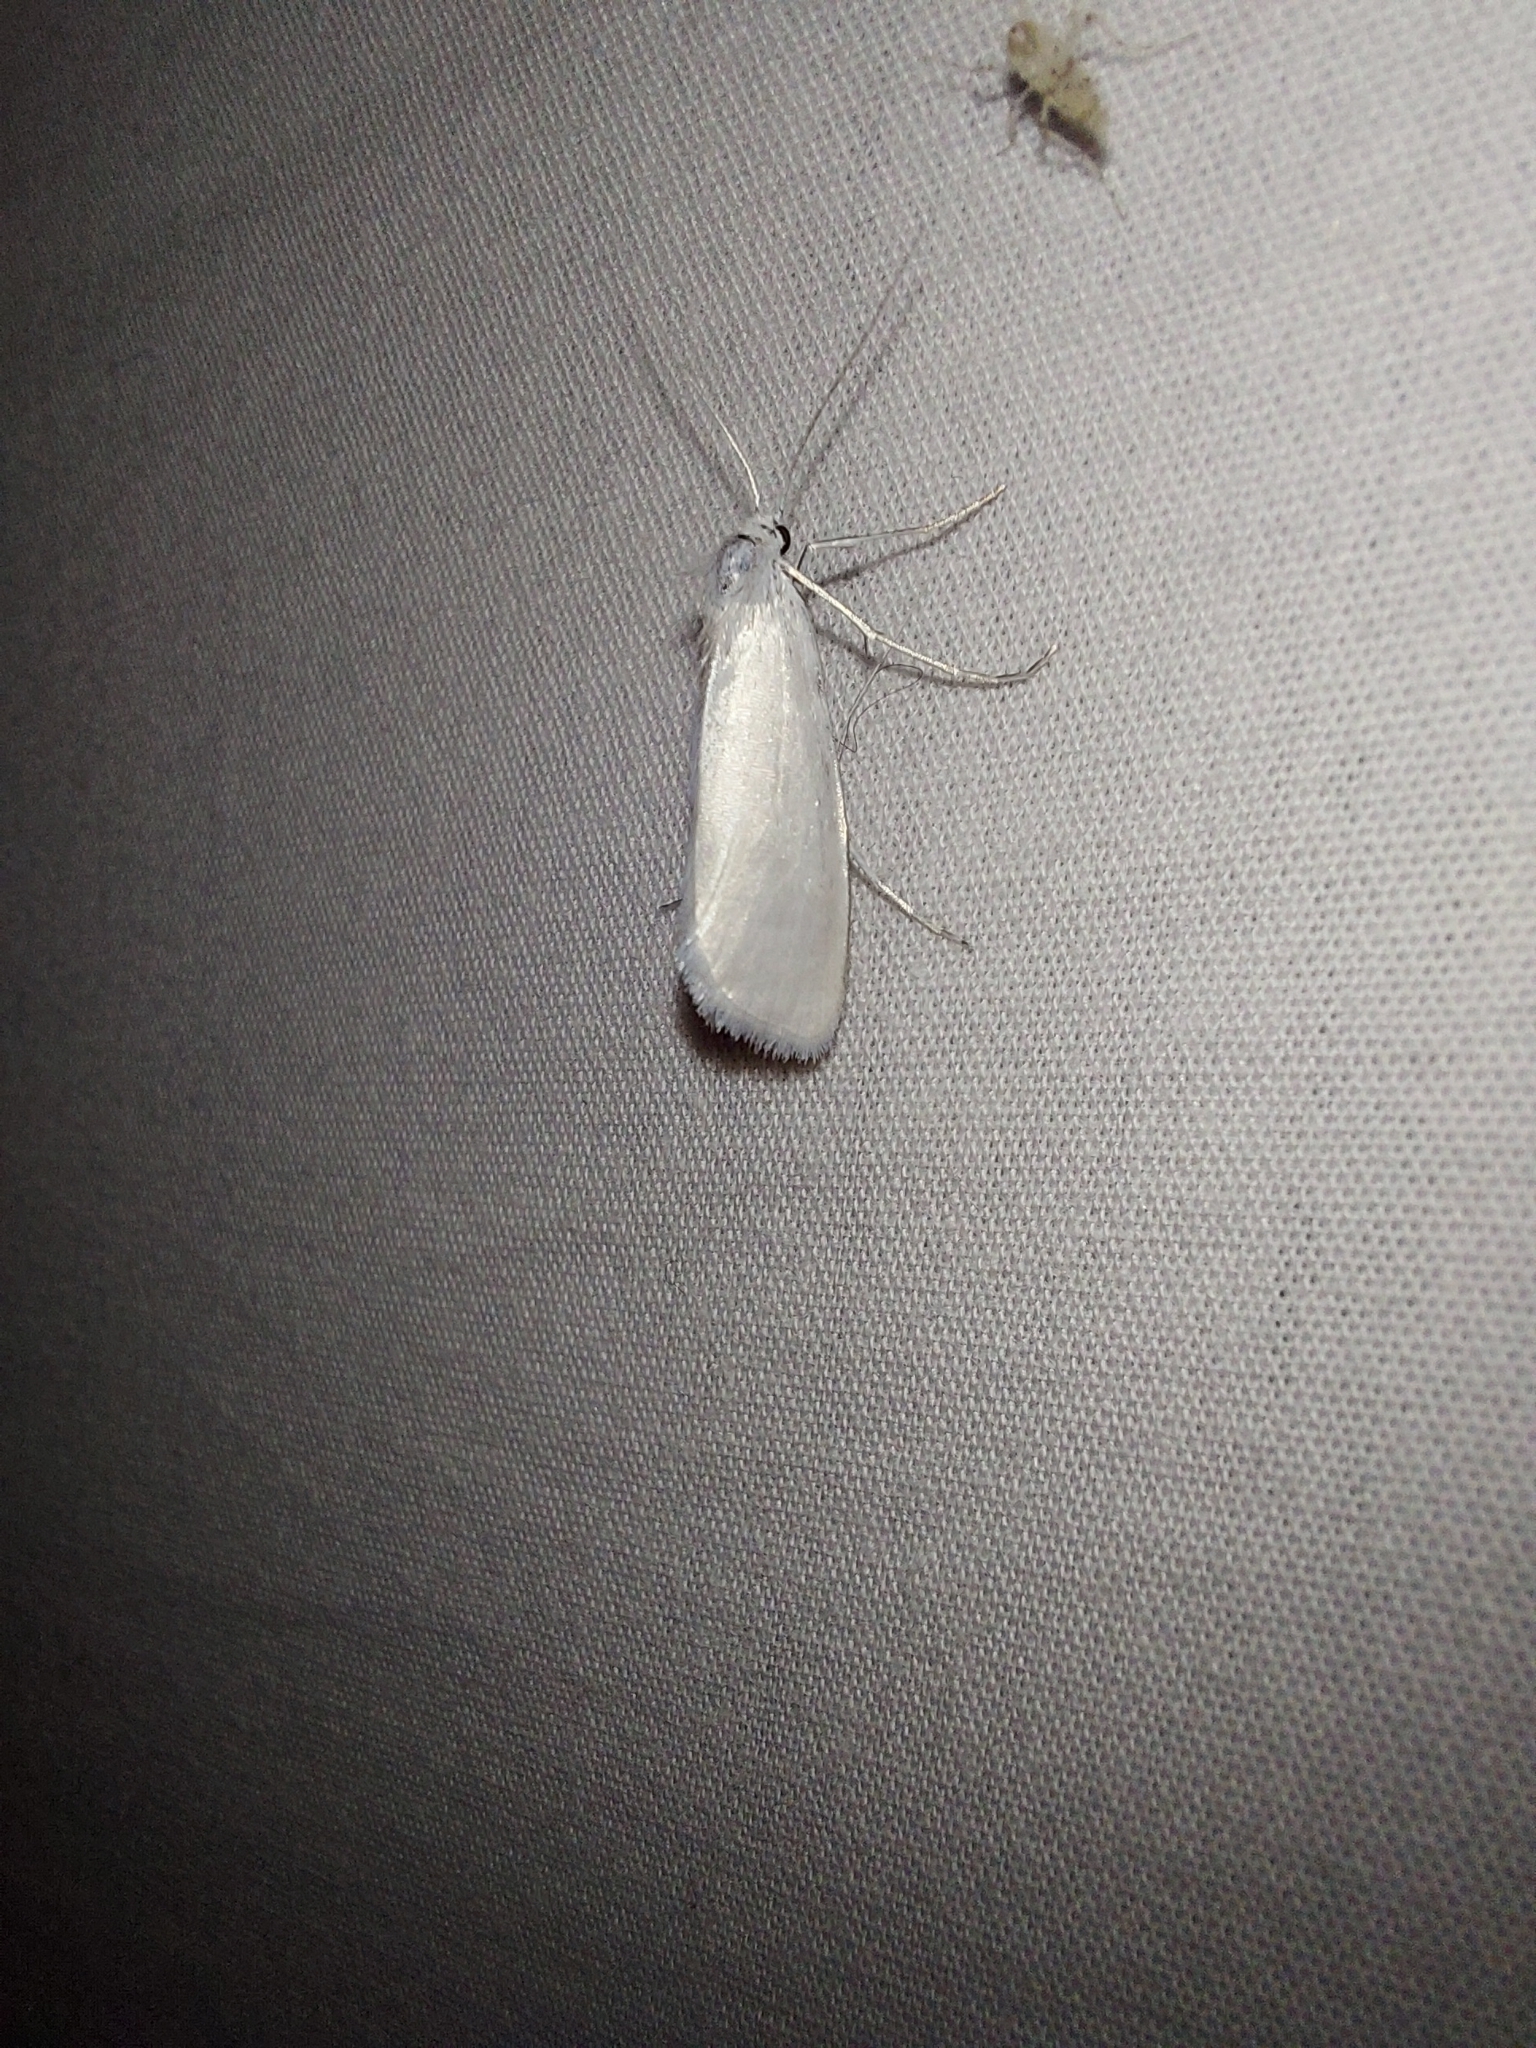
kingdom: Animalia
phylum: Arthropoda
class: Insecta
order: Lepidoptera
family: Crambidae
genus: Tipanaea
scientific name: Tipanaea patulella
